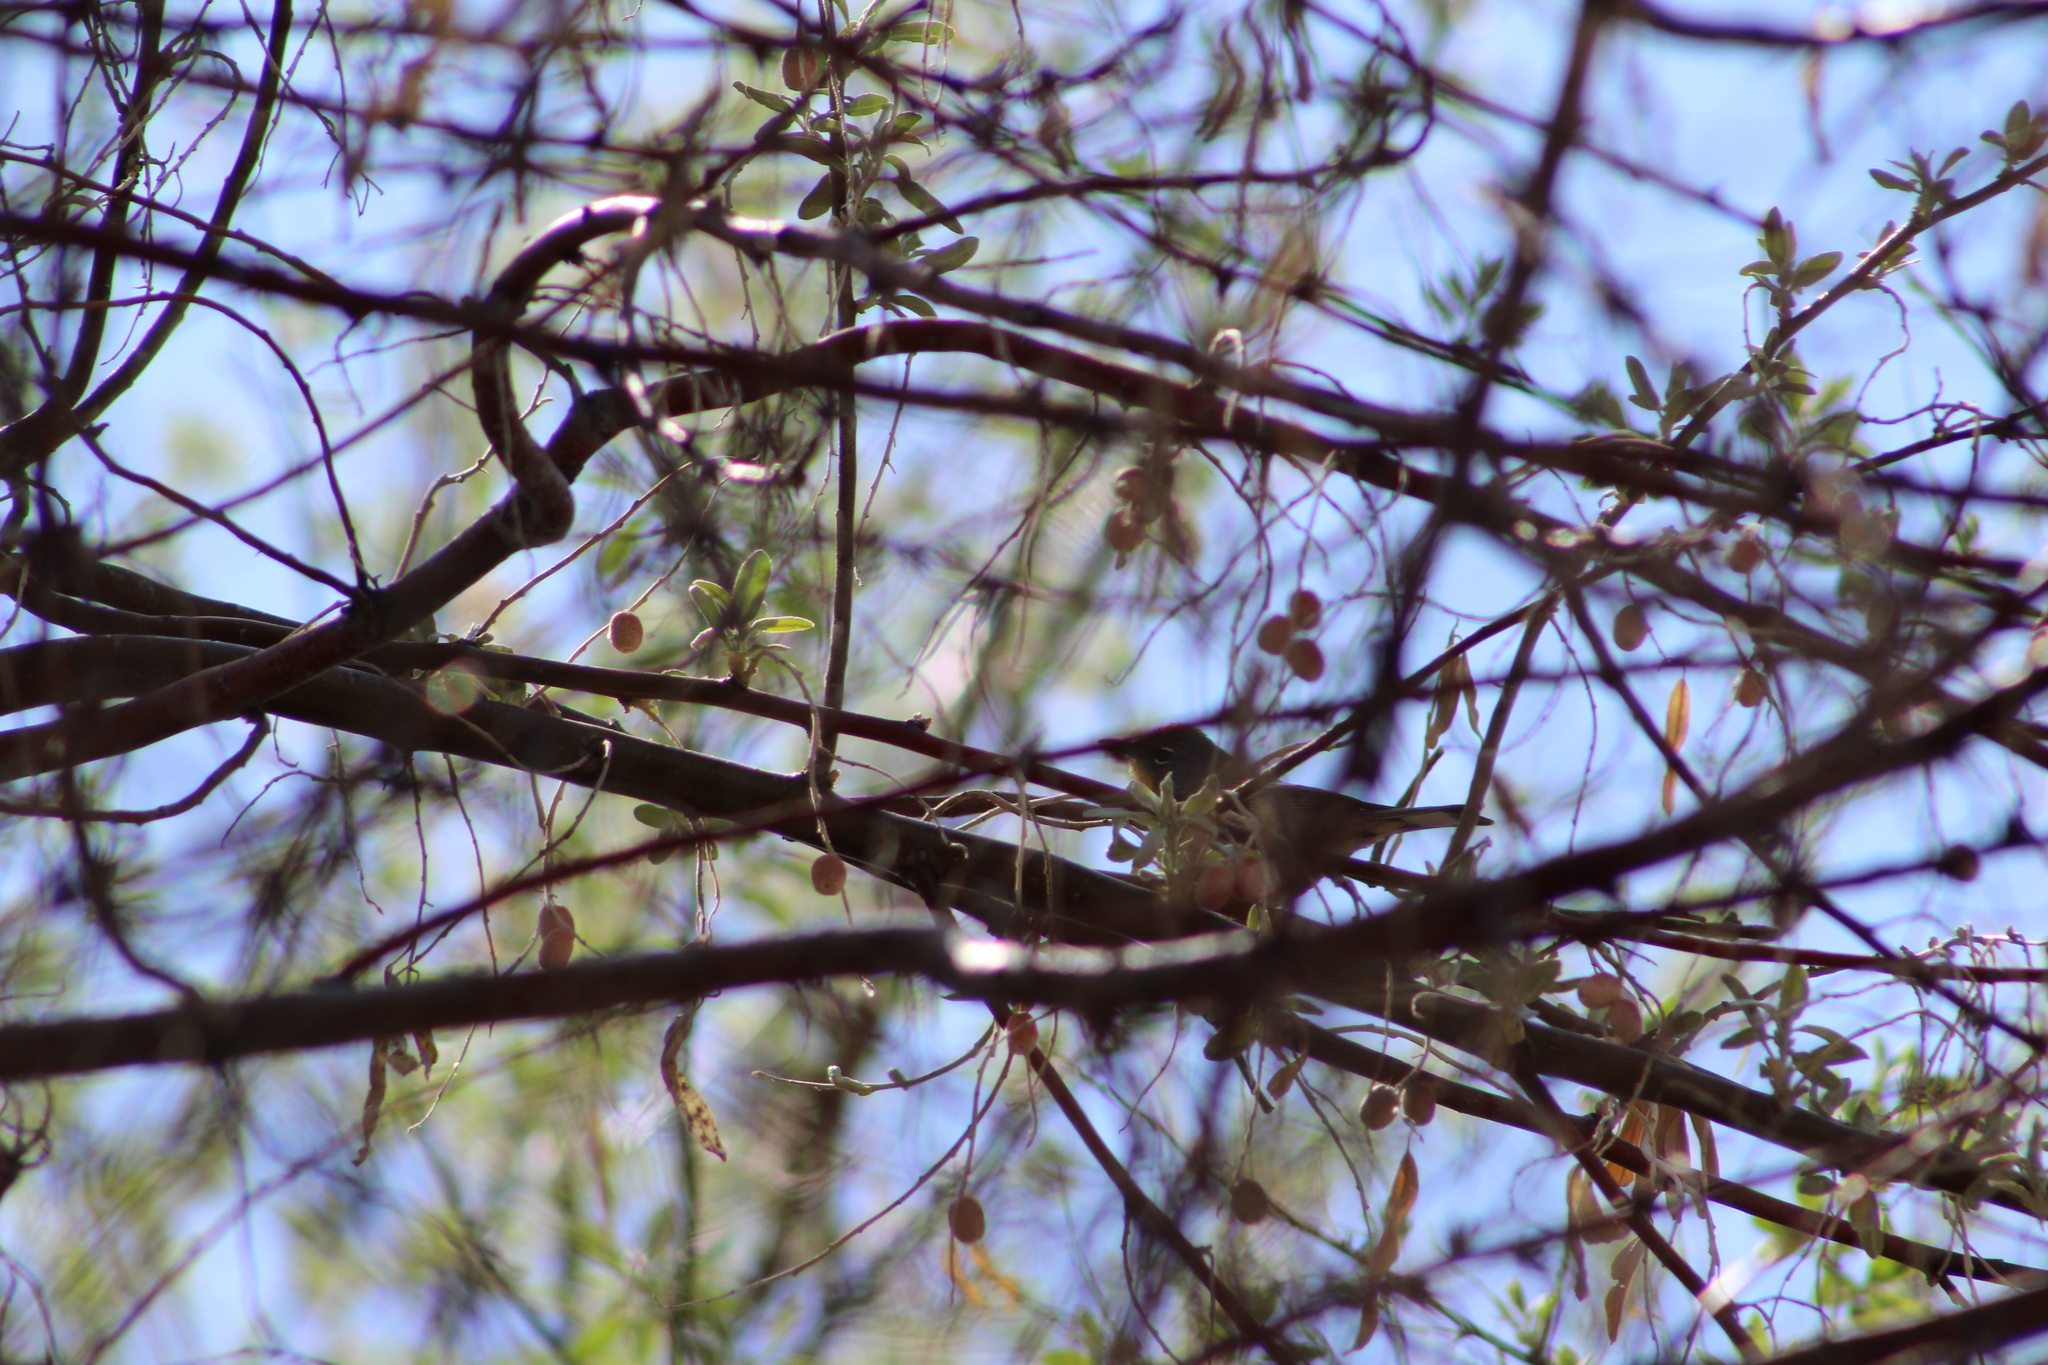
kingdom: Animalia
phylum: Chordata
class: Aves
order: Passeriformes
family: Parulidae
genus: Setophaga
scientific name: Setophaga coronata
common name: Myrtle warbler
